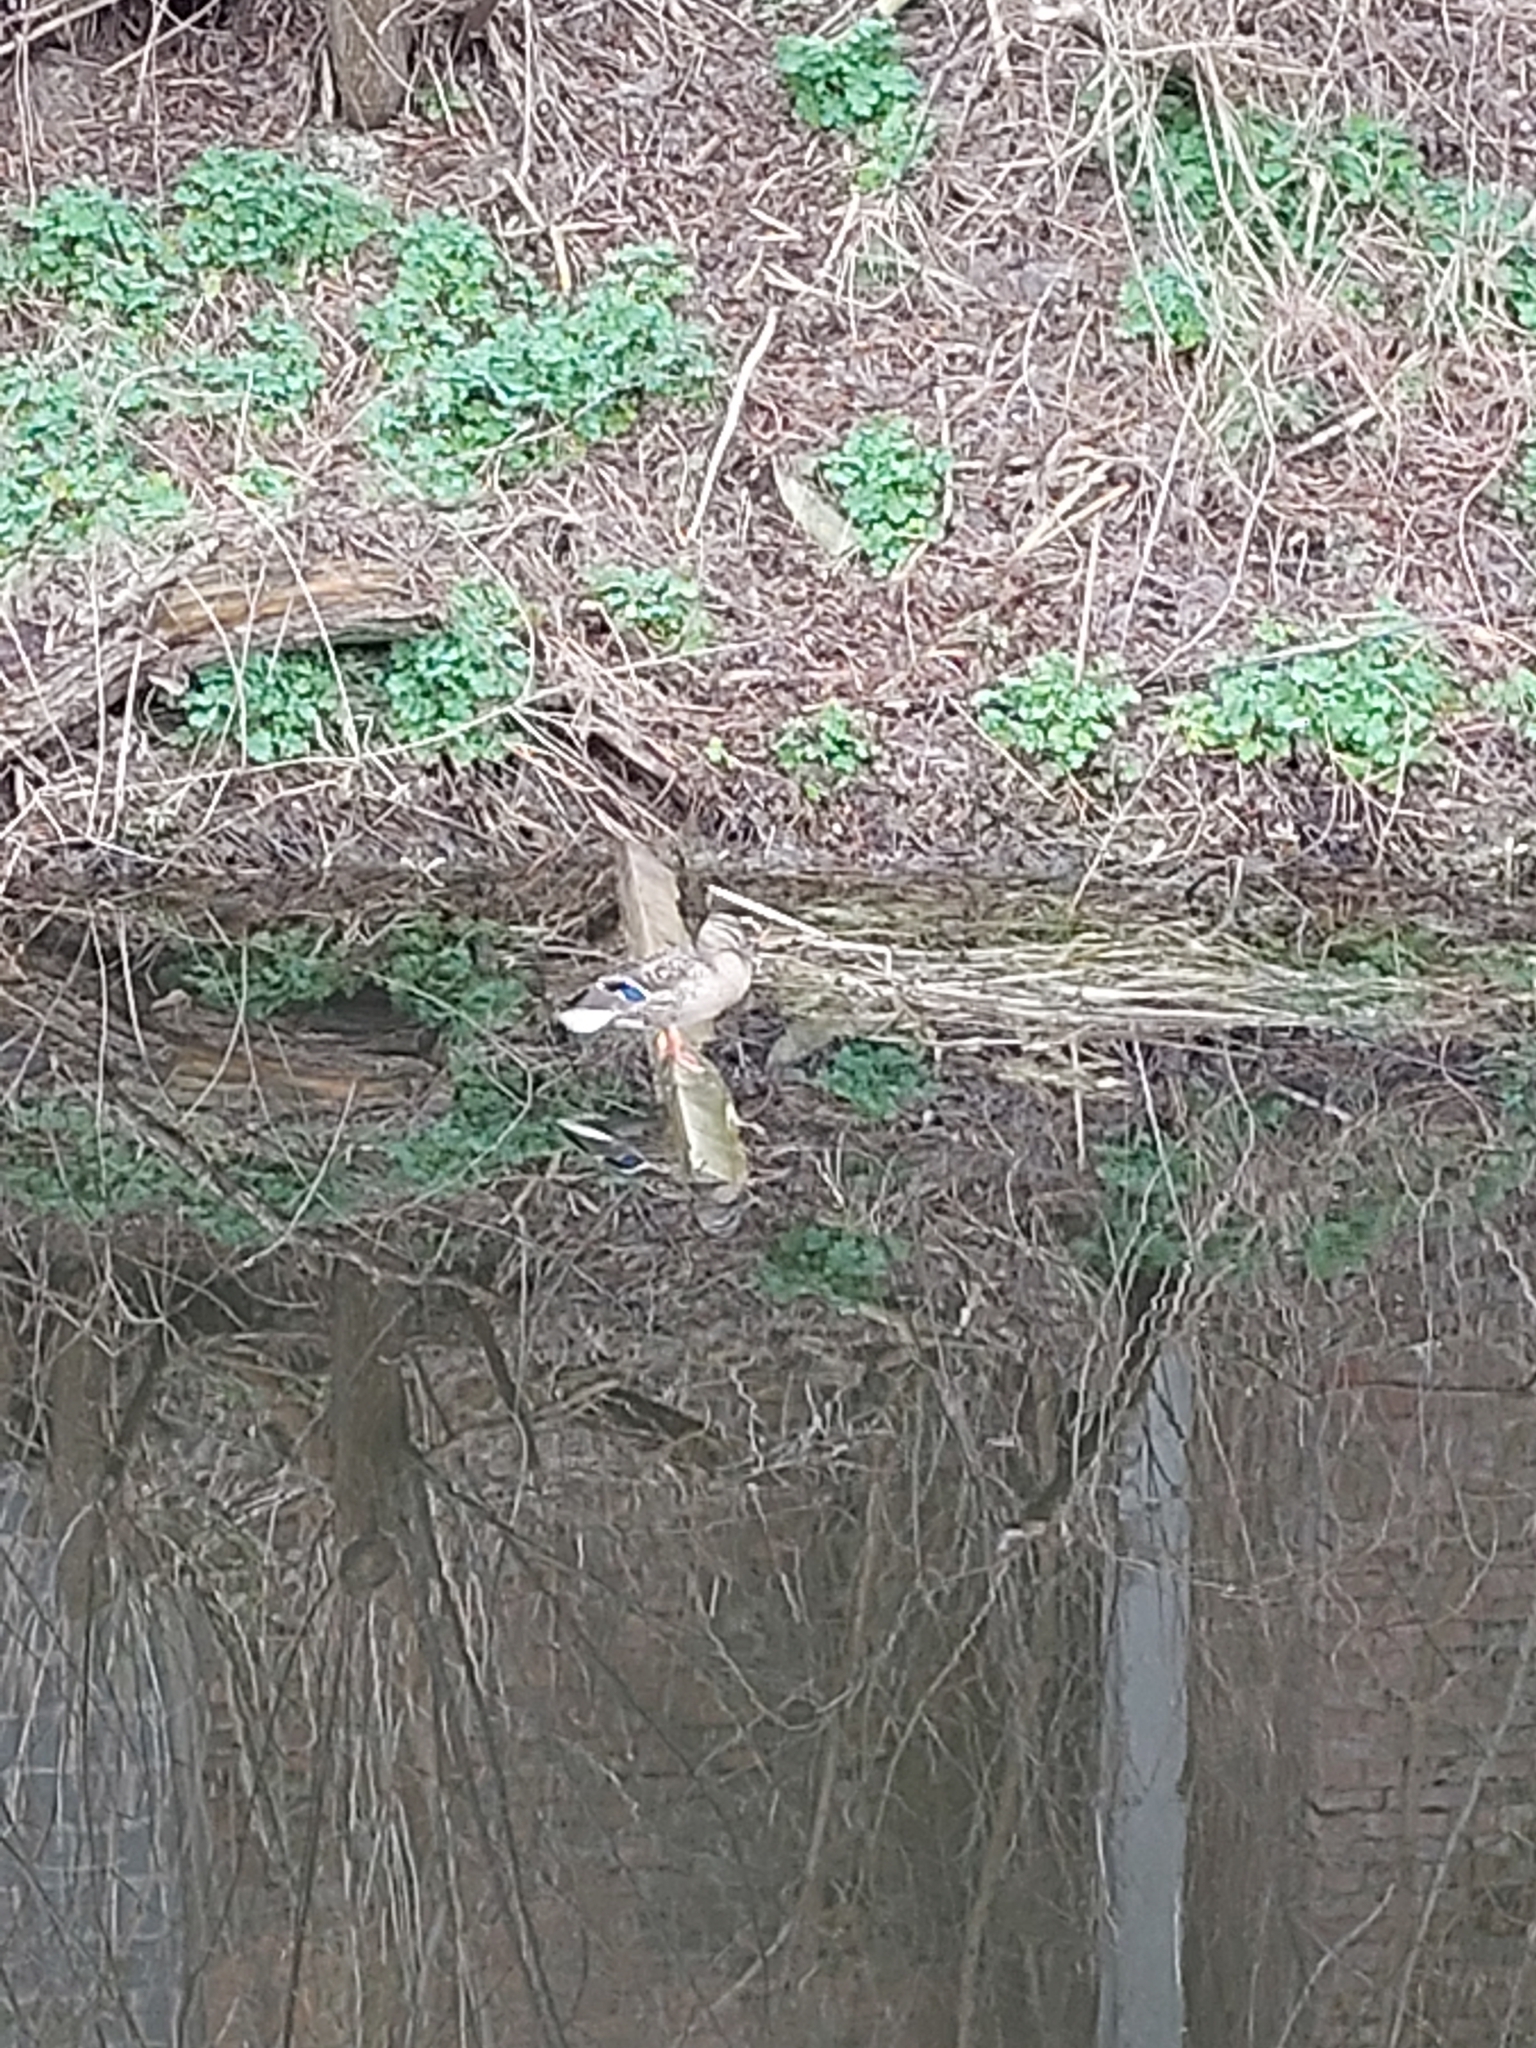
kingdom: Animalia
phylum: Chordata
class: Aves
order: Anseriformes
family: Anatidae
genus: Anas
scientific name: Anas platyrhynchos
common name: Mallard
